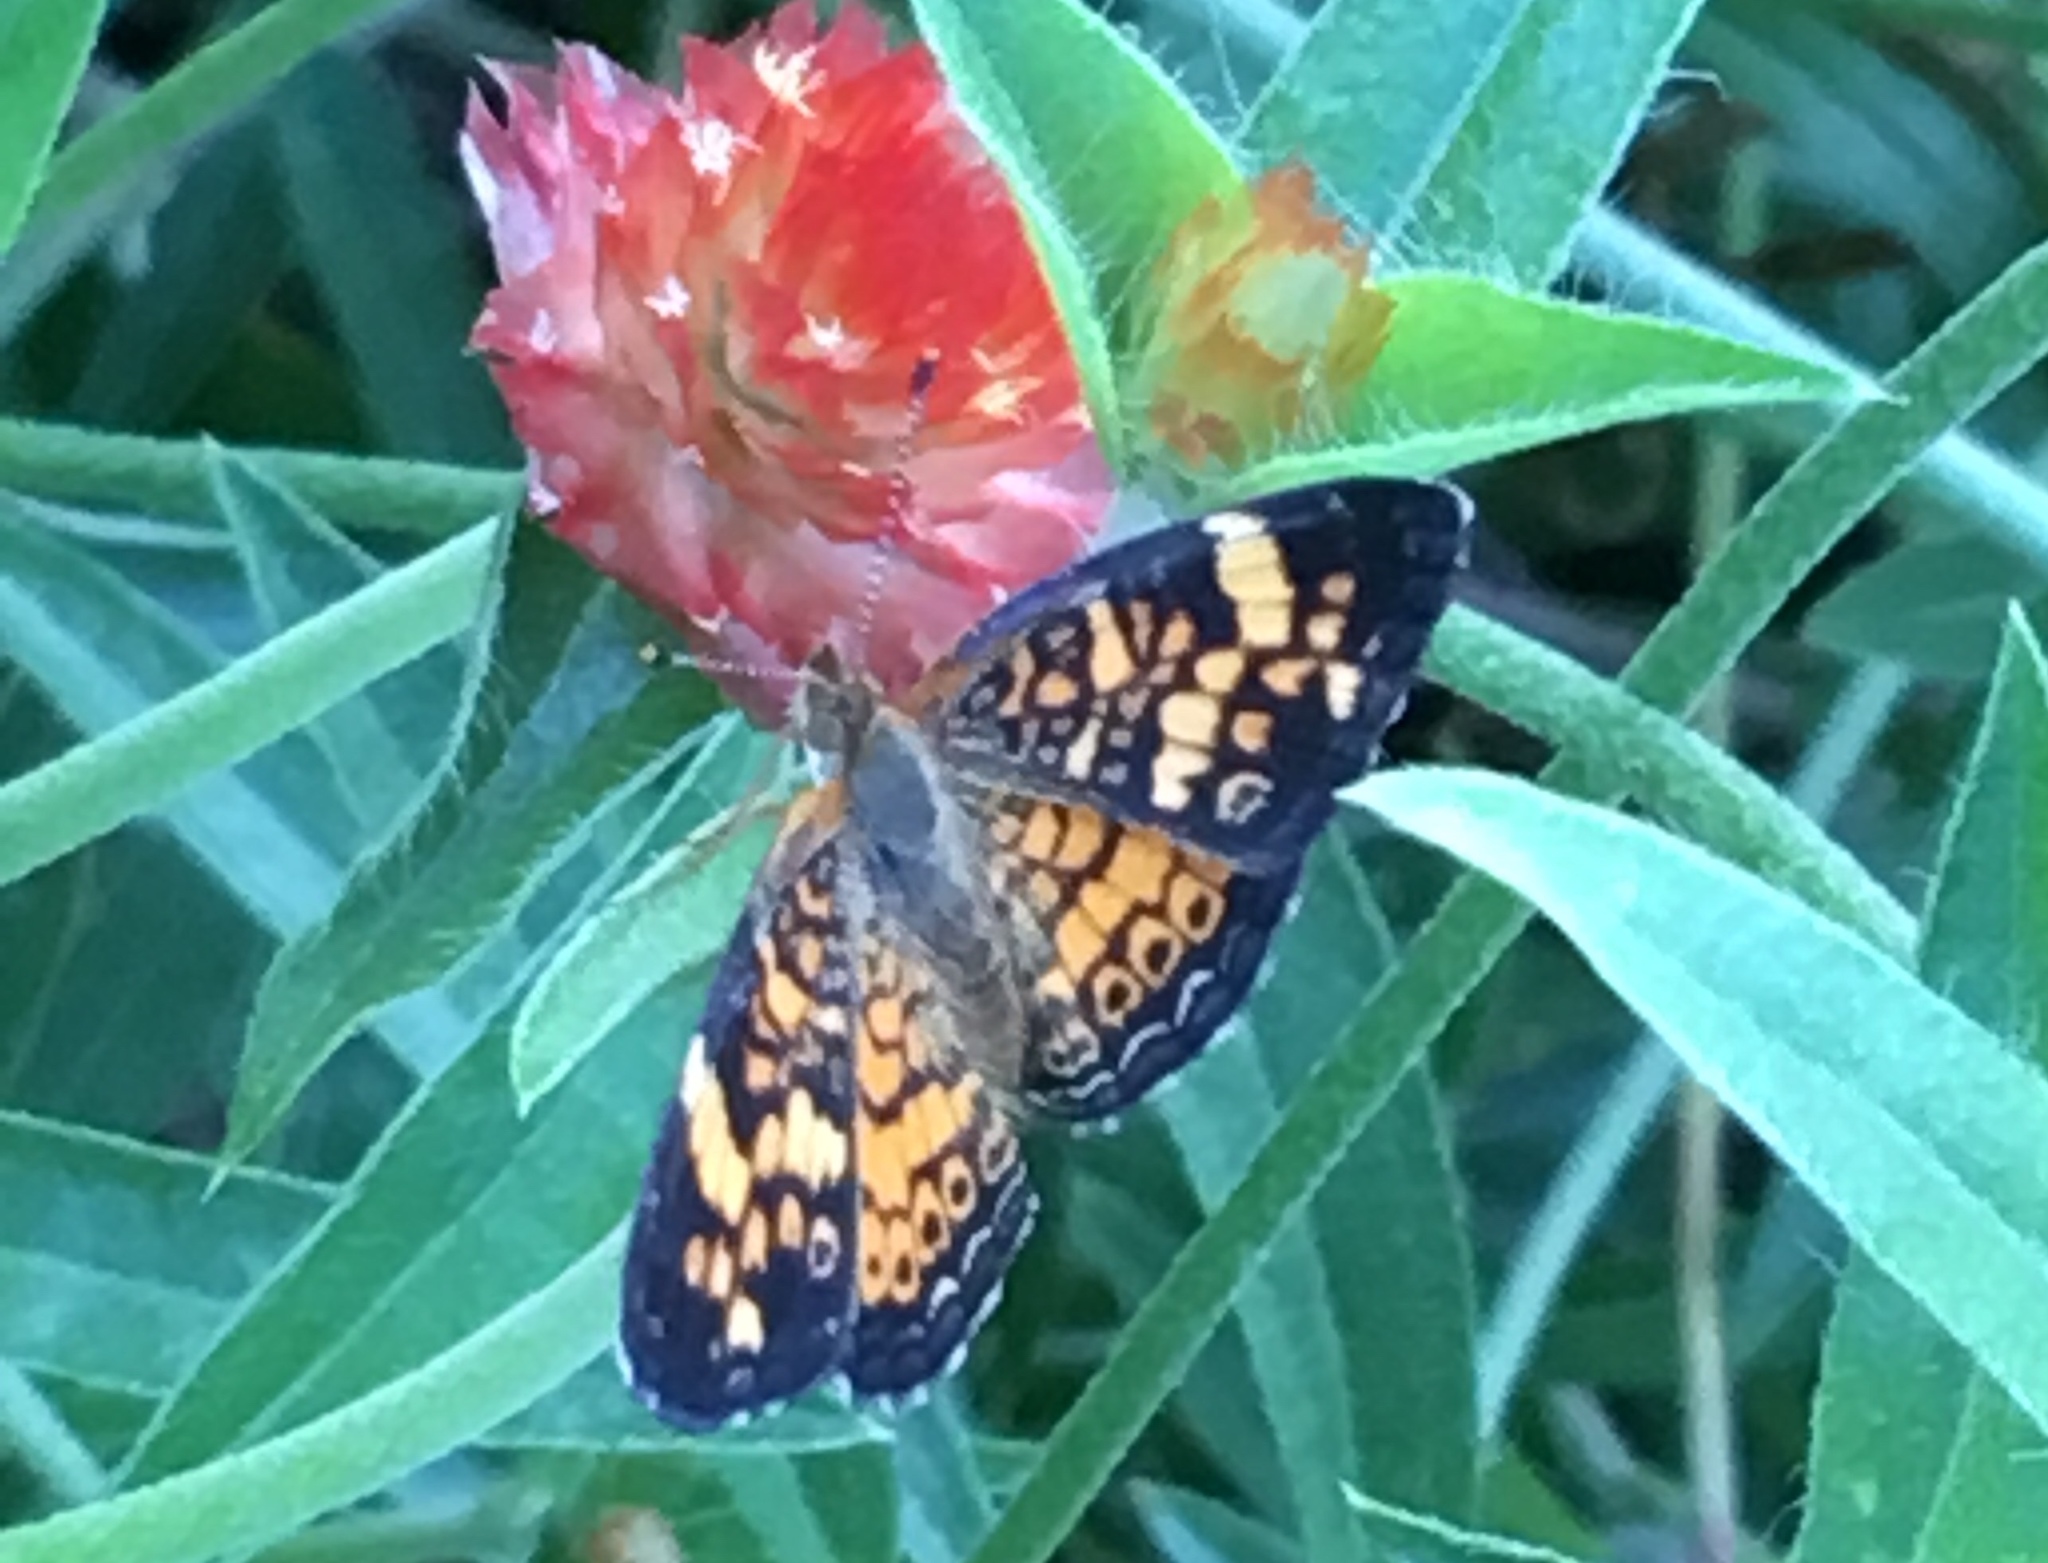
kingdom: Animalia
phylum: Arthropoda
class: Insecta
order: Lepidoptera
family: Nymphalidae
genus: Phyciodes
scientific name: Phyciodes tharos
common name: Pearl crescent
